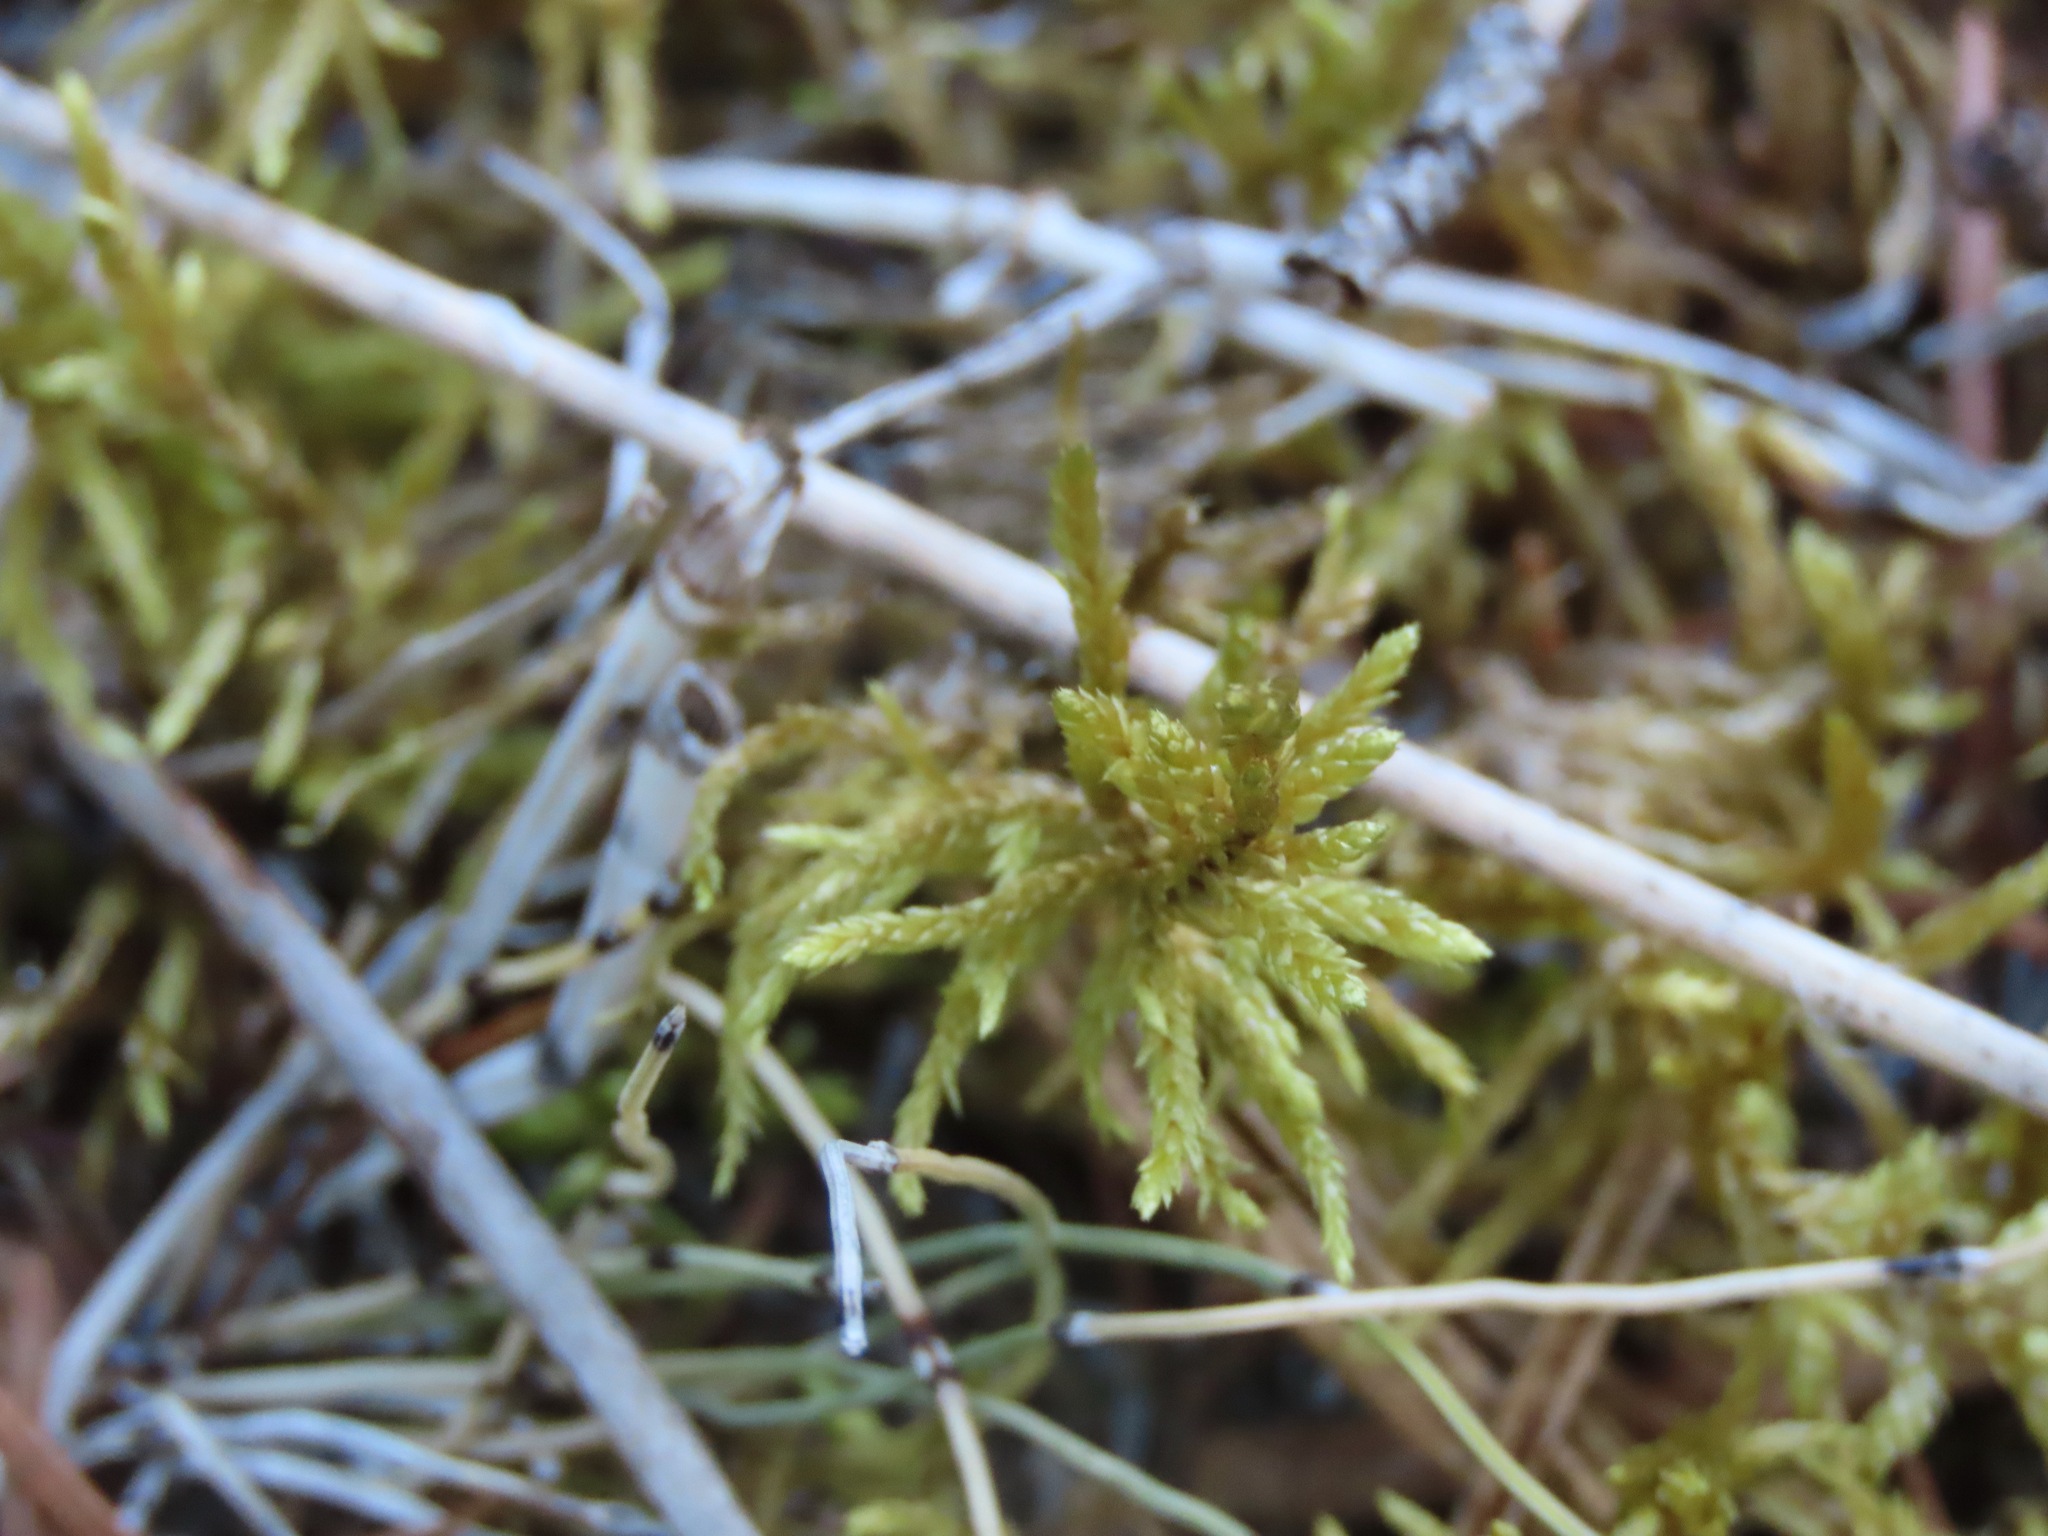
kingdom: Plantae
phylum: Bryophyta
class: Bryopsida
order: Hypnales
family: Hylocomiaceae
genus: Pleurozium
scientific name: Pleurozium schreberi
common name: Red-stemmed feather moss
